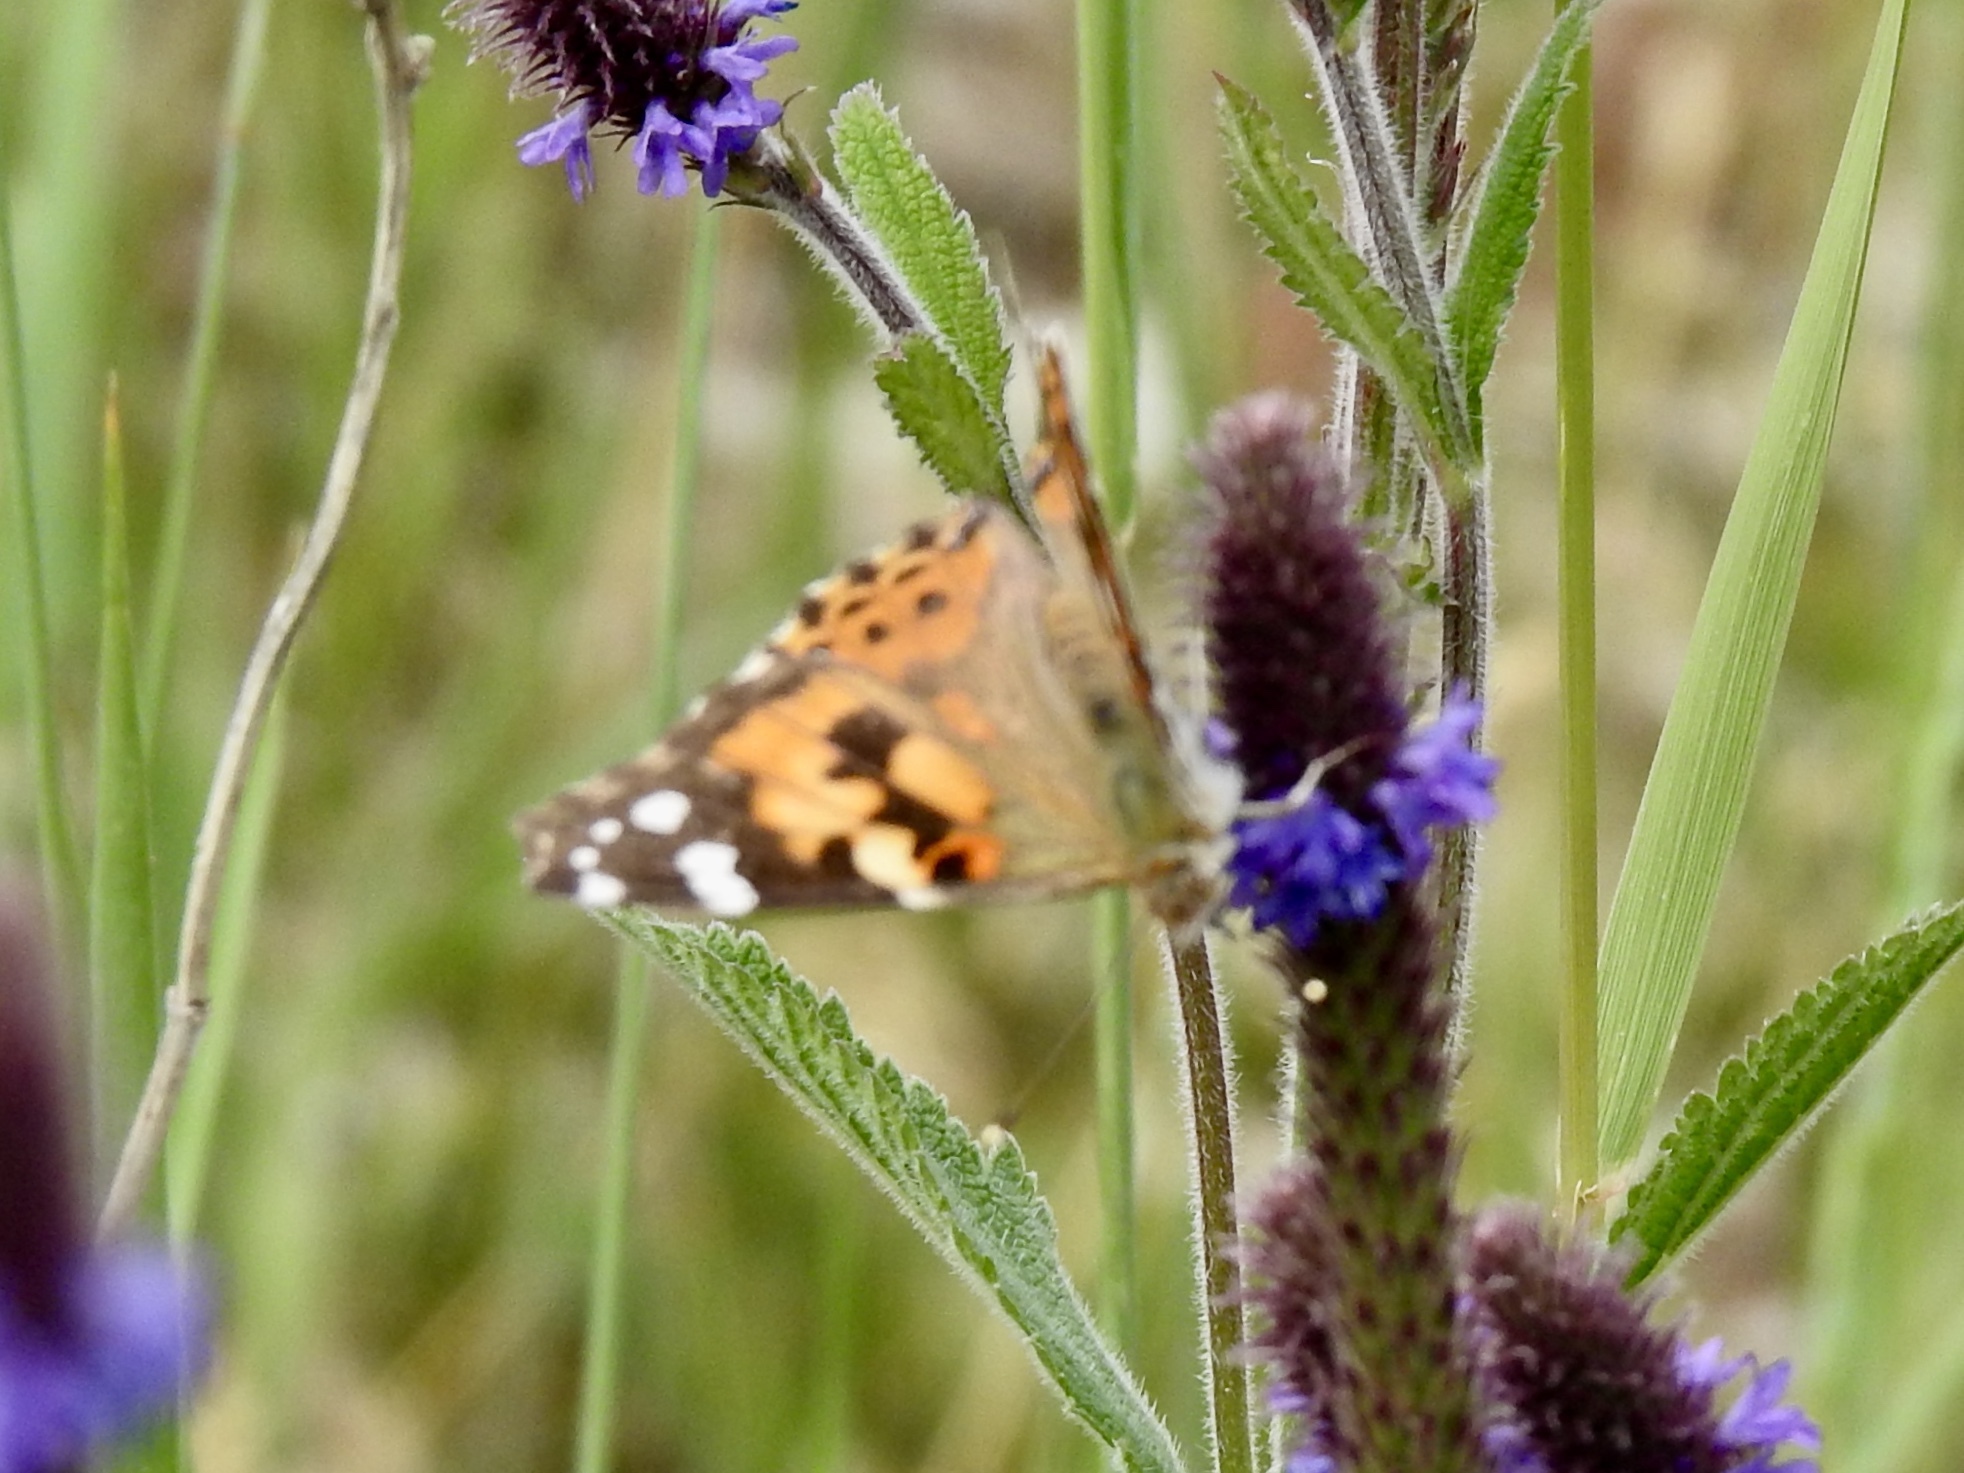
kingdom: Animalia
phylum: Arthropoda
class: Insecta
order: Lepidoptera
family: Nymphalidae
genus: Vanessa
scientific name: Vanessa cardui
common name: Painted lady
